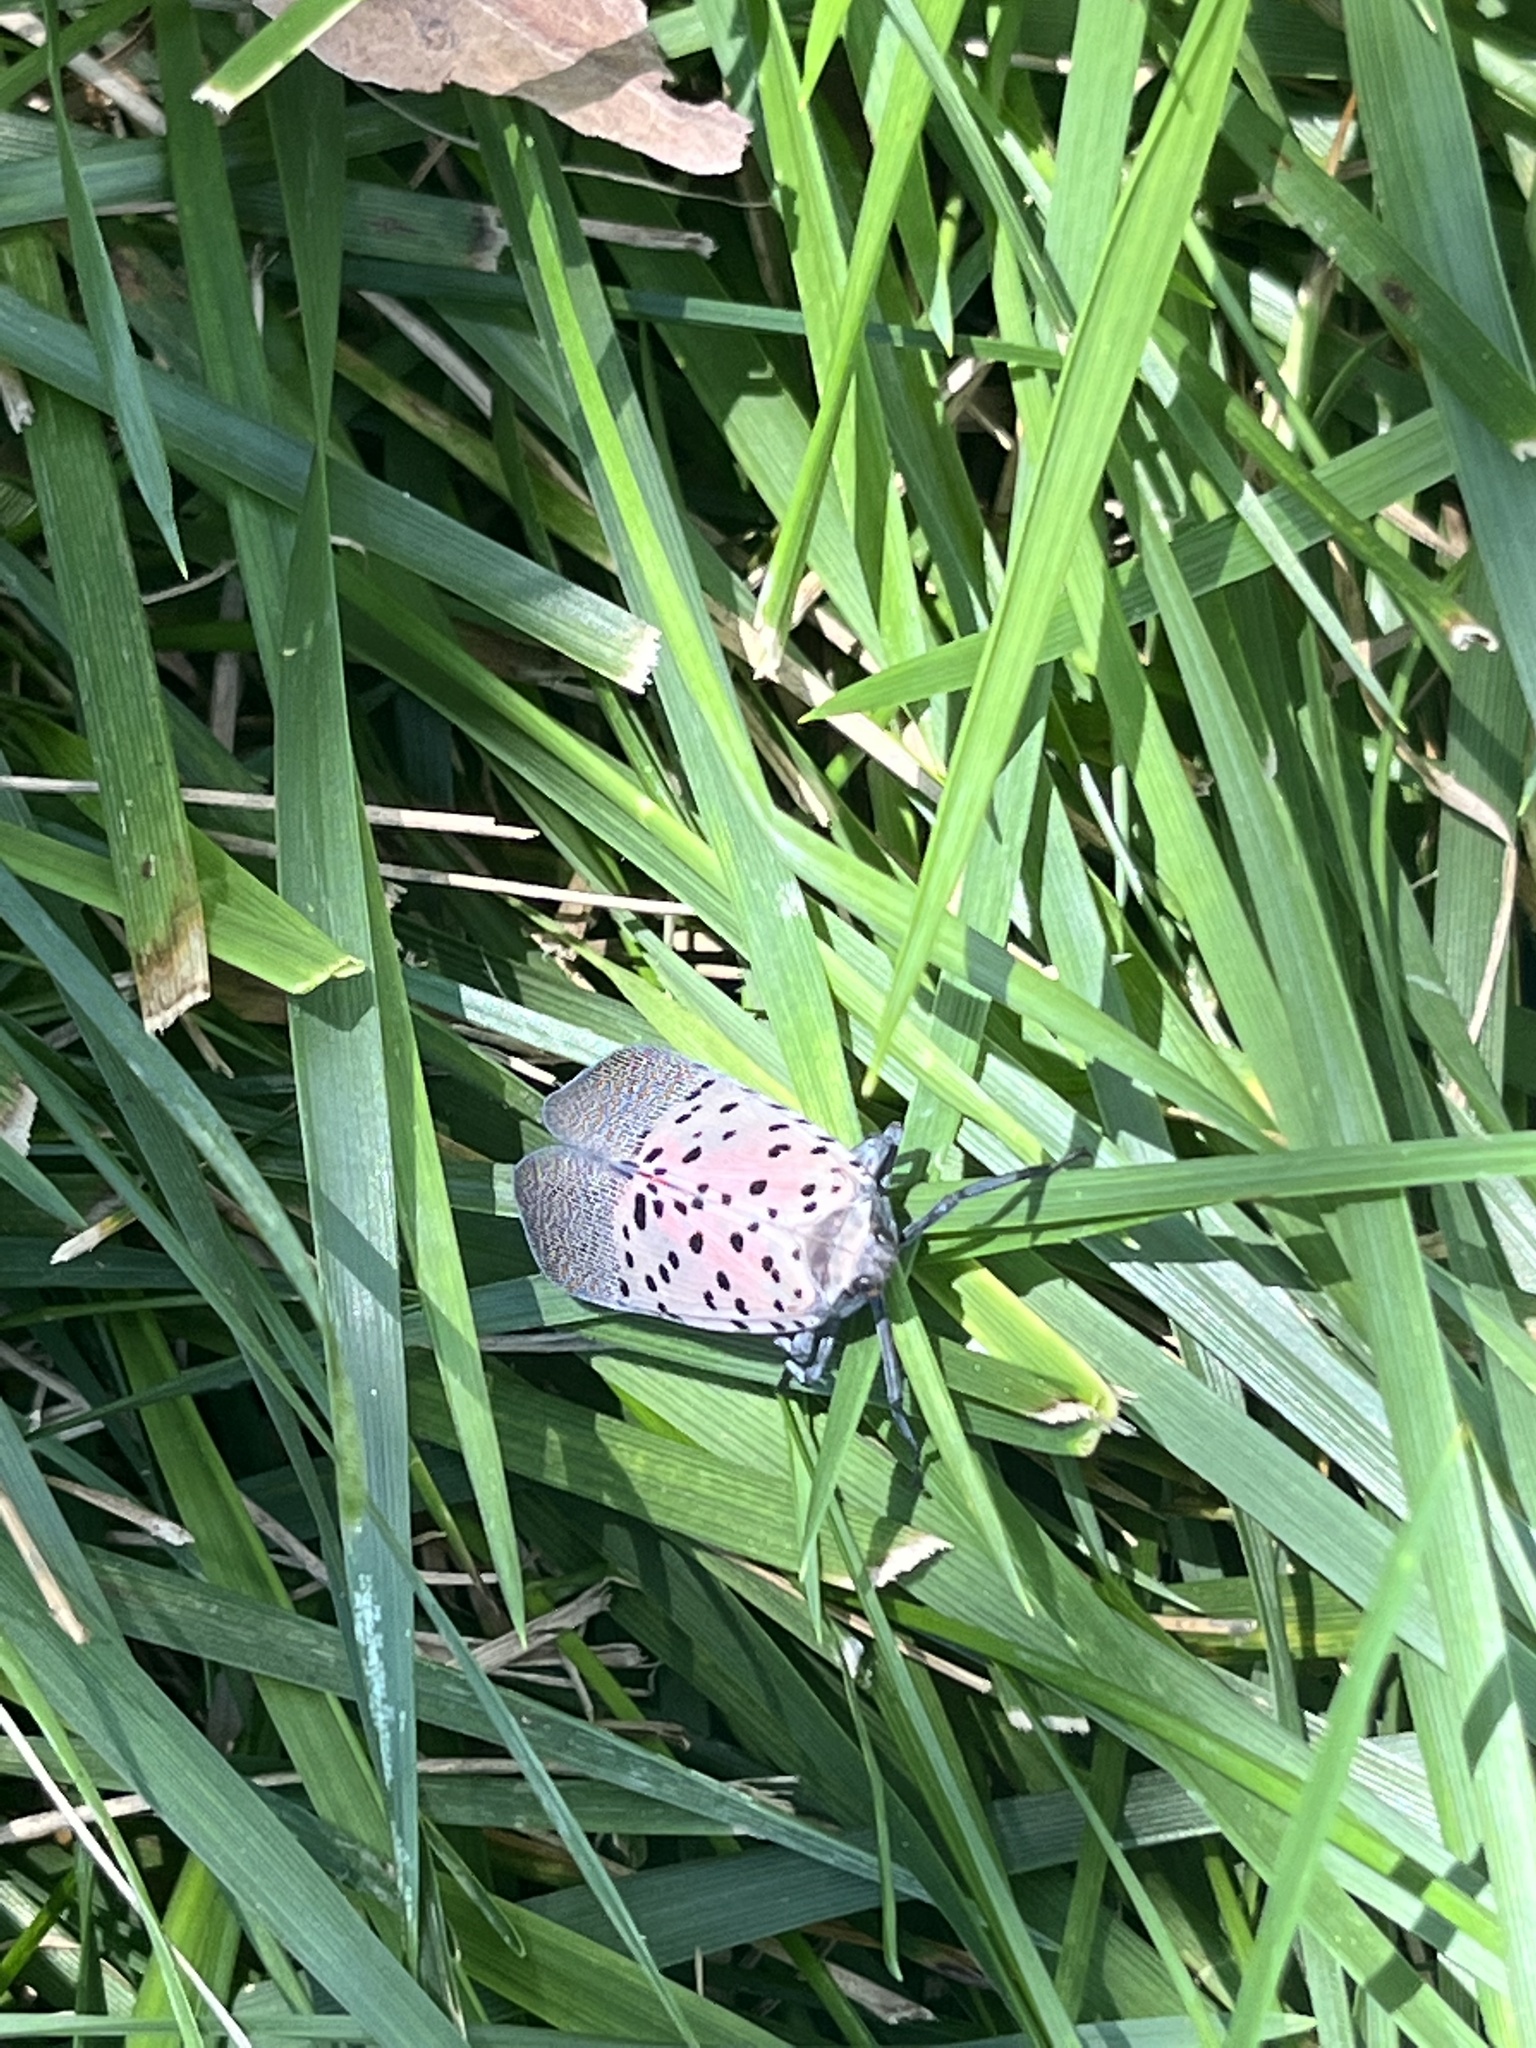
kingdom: Animalia
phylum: Arthropoda
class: Insecta
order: Hemiptera
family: Fulgoridae
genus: Lycorma
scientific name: Lycorma delicatula
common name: Spotted lanternfly
